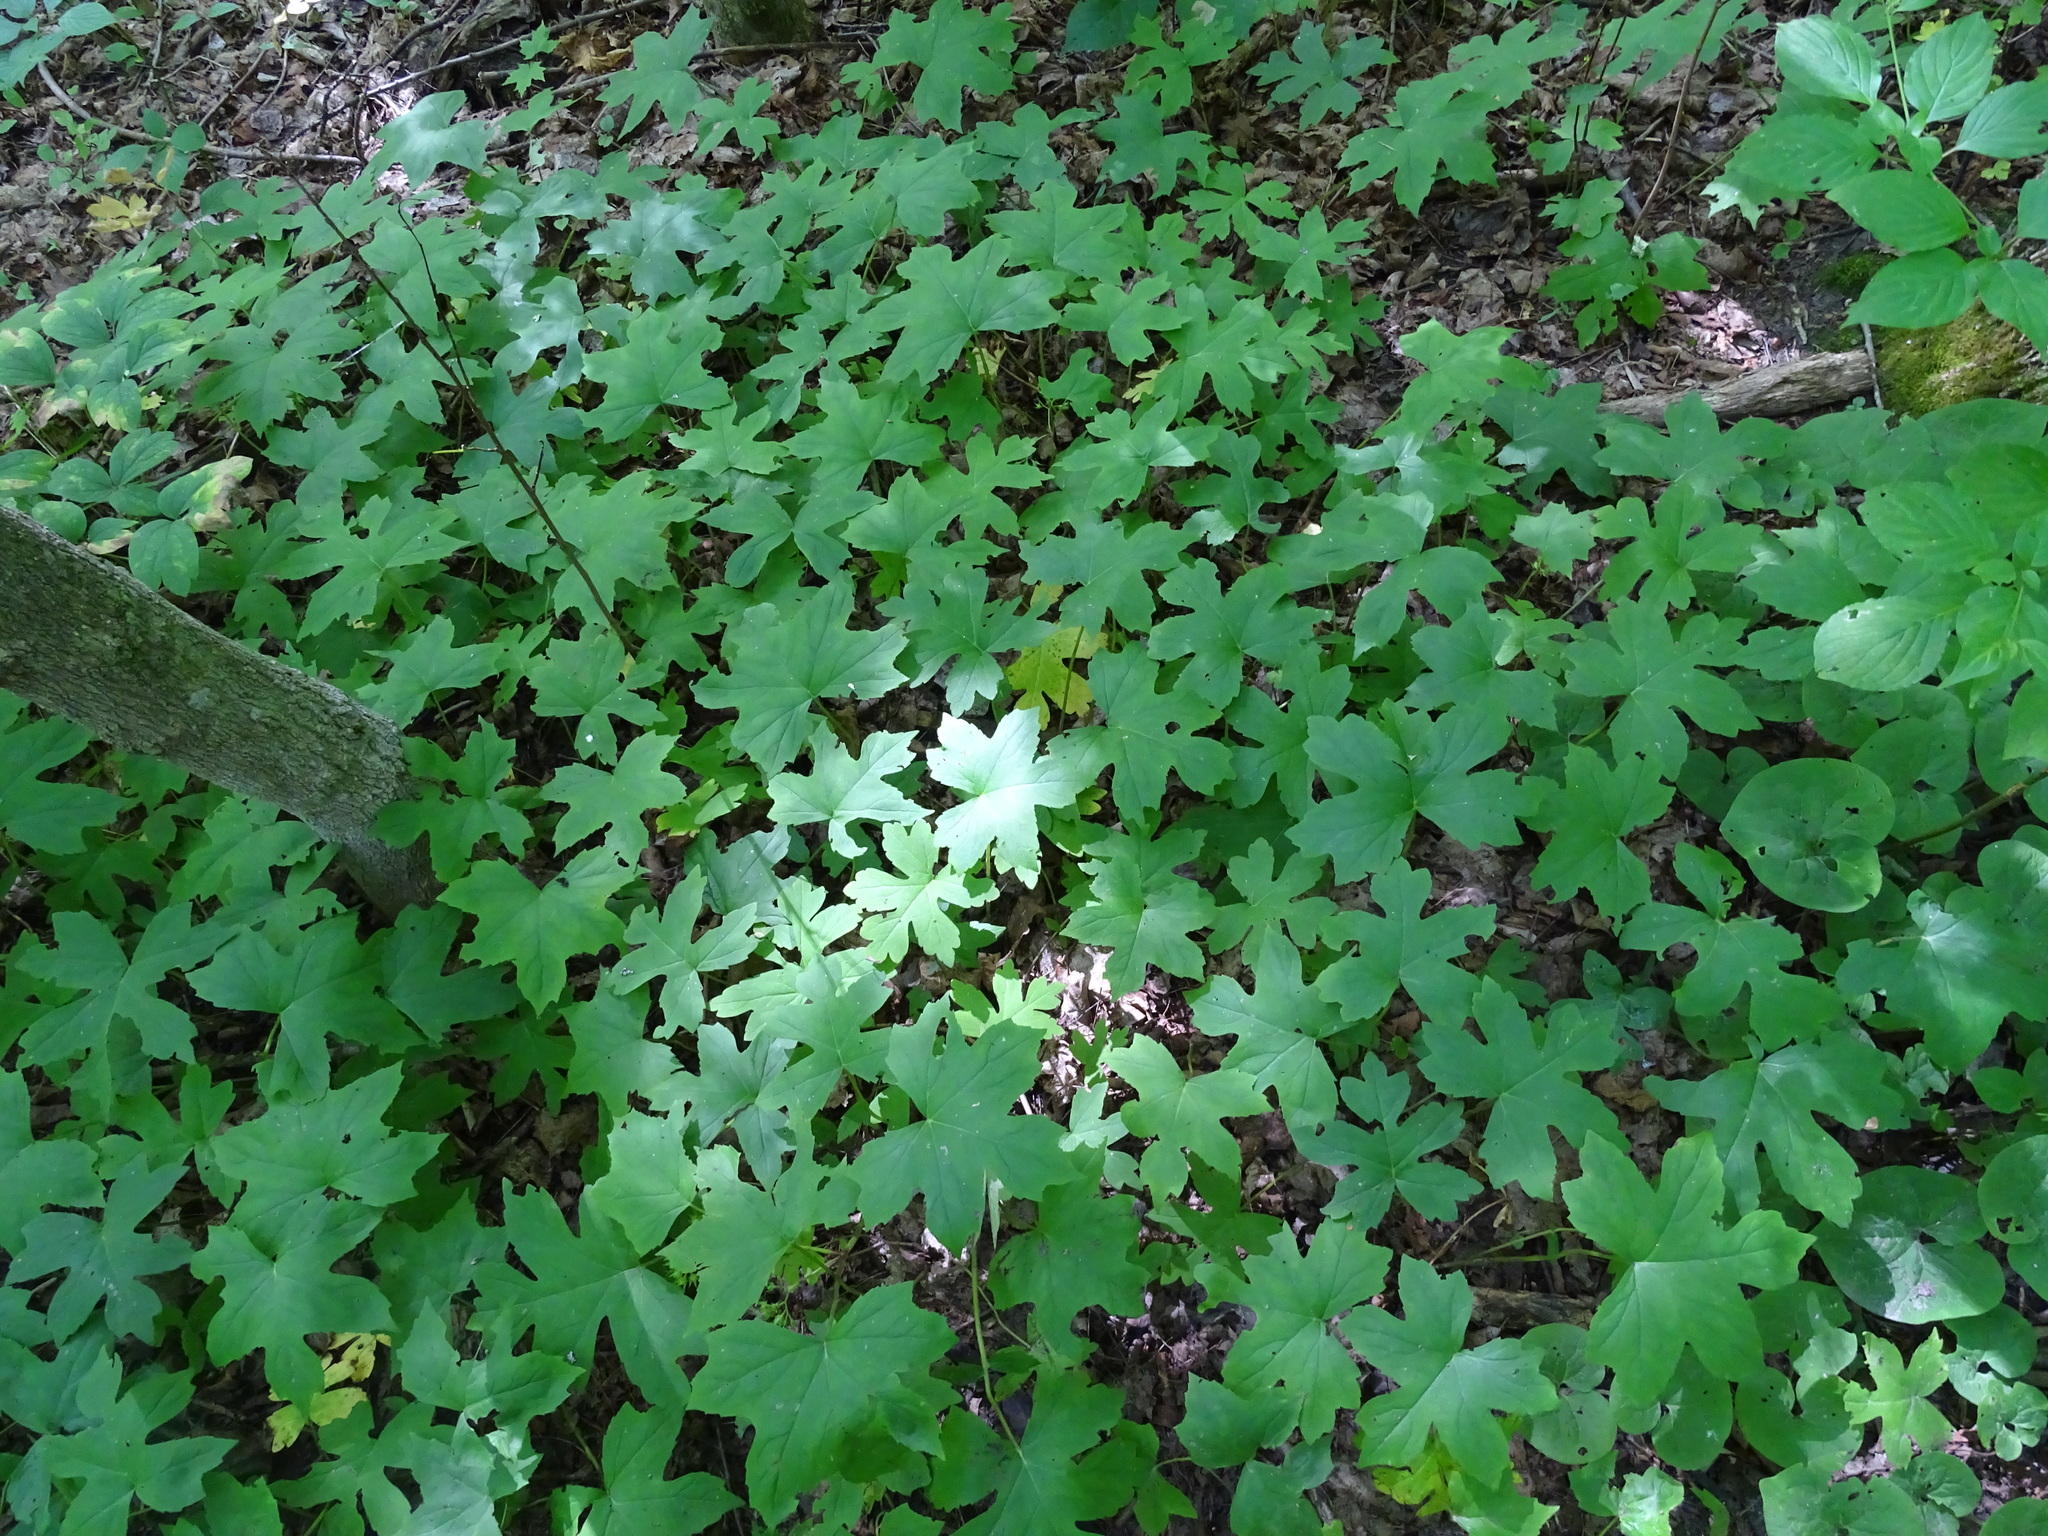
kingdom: Plantae
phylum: Tracheophyta
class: Magnoliopsida
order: Boraginales
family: Hydrophyllaceae
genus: Hydrophyllum
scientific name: Hydrophyllum canadense
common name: Canada waterleaf
